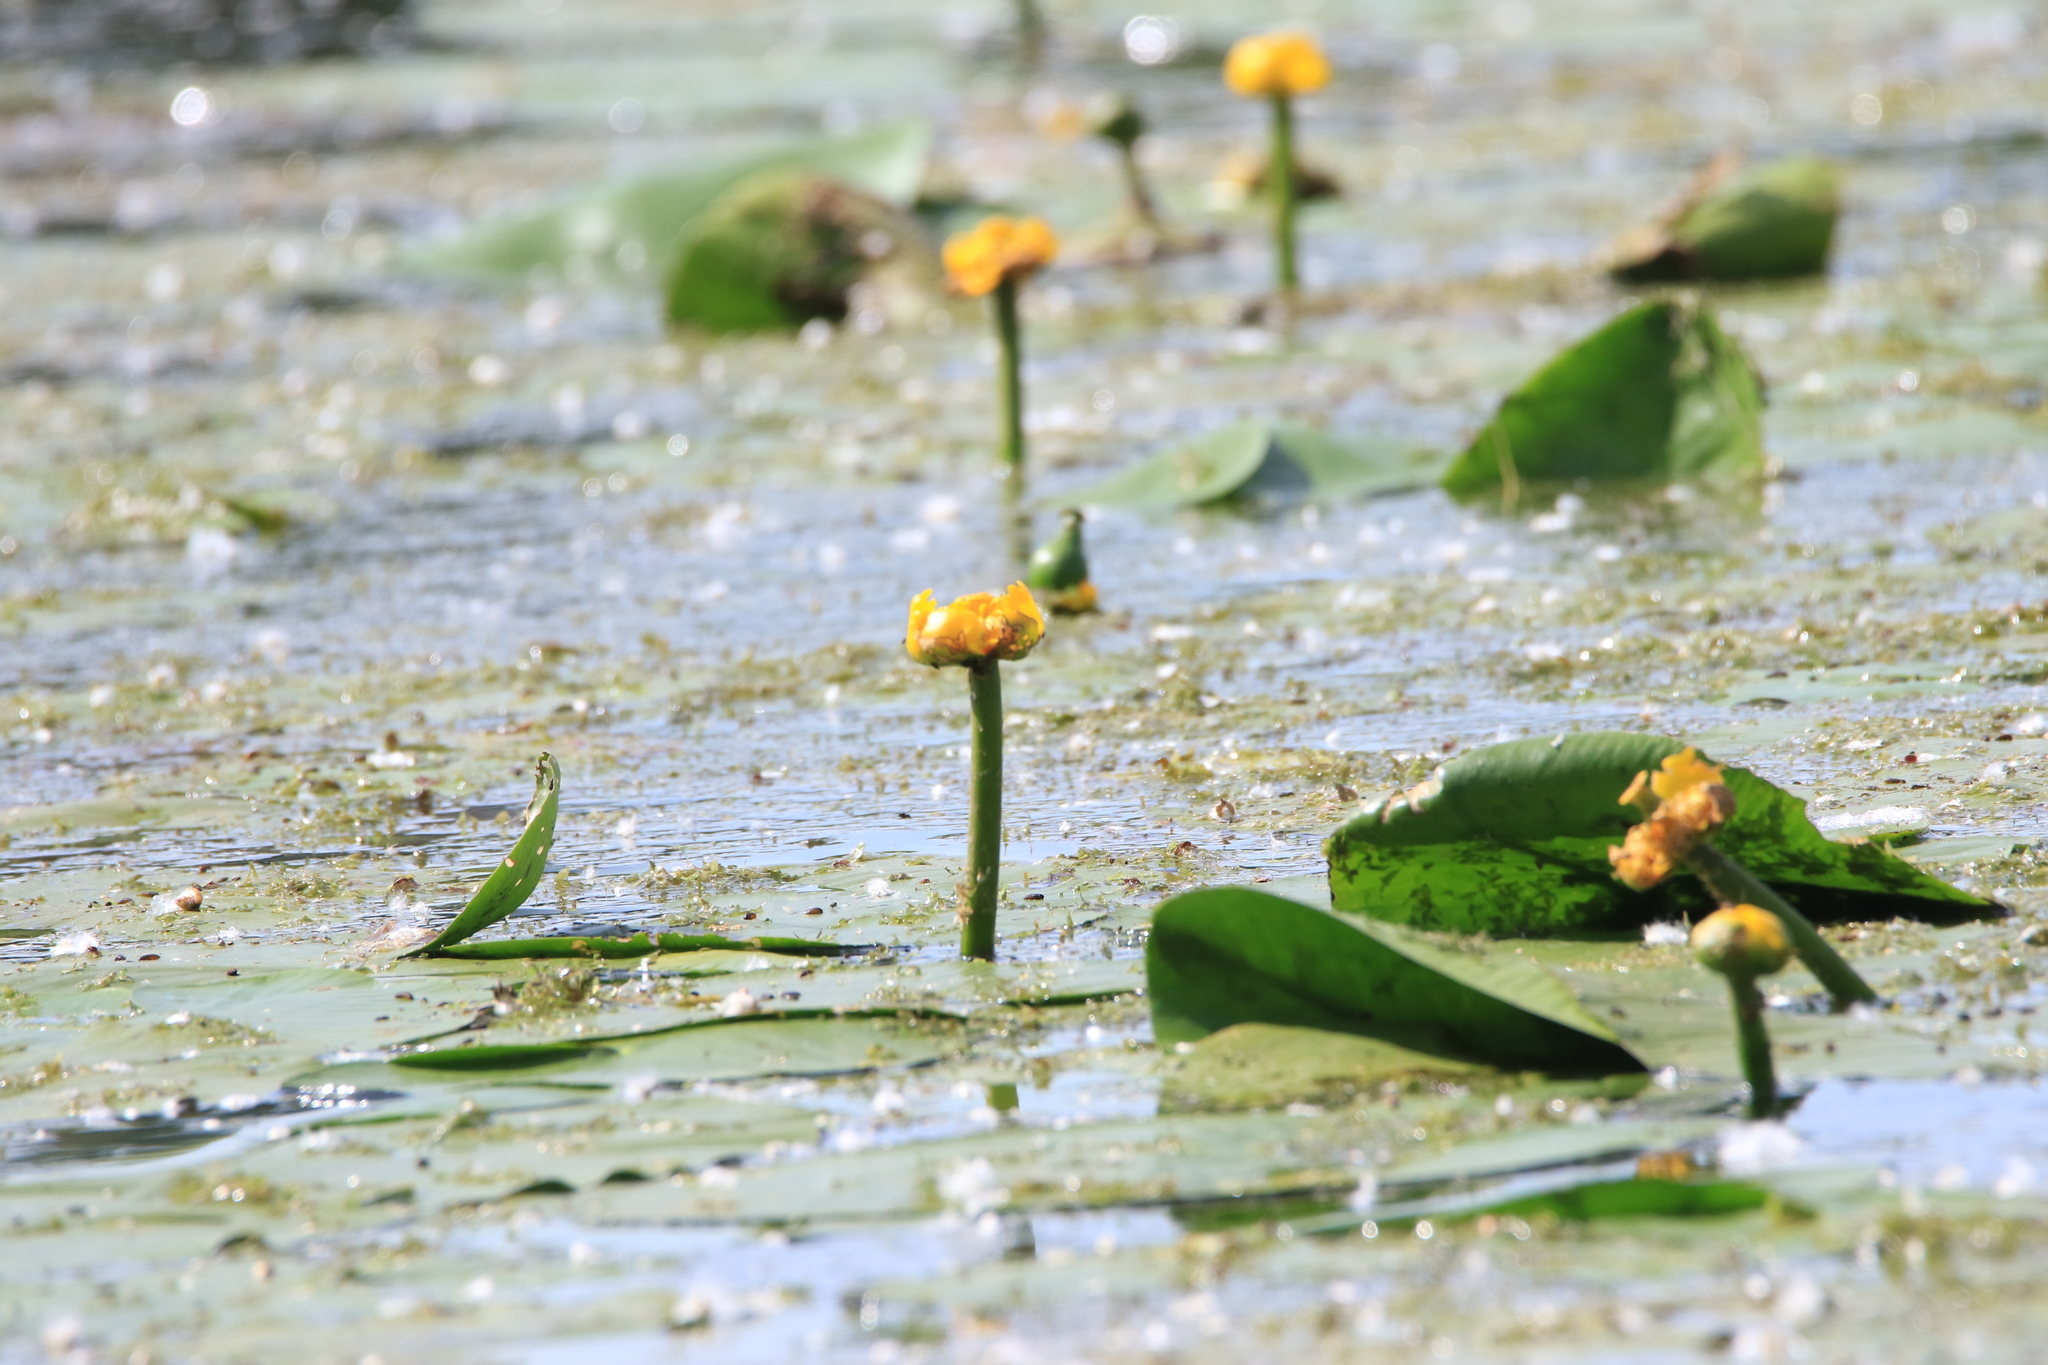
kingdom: Plantae
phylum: Tracheophyta
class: Magnoliopsida
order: Nymphaeales
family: Nymphaeaceae
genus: Nuphar
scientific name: Nuphar lutea
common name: Yellow water-lily
